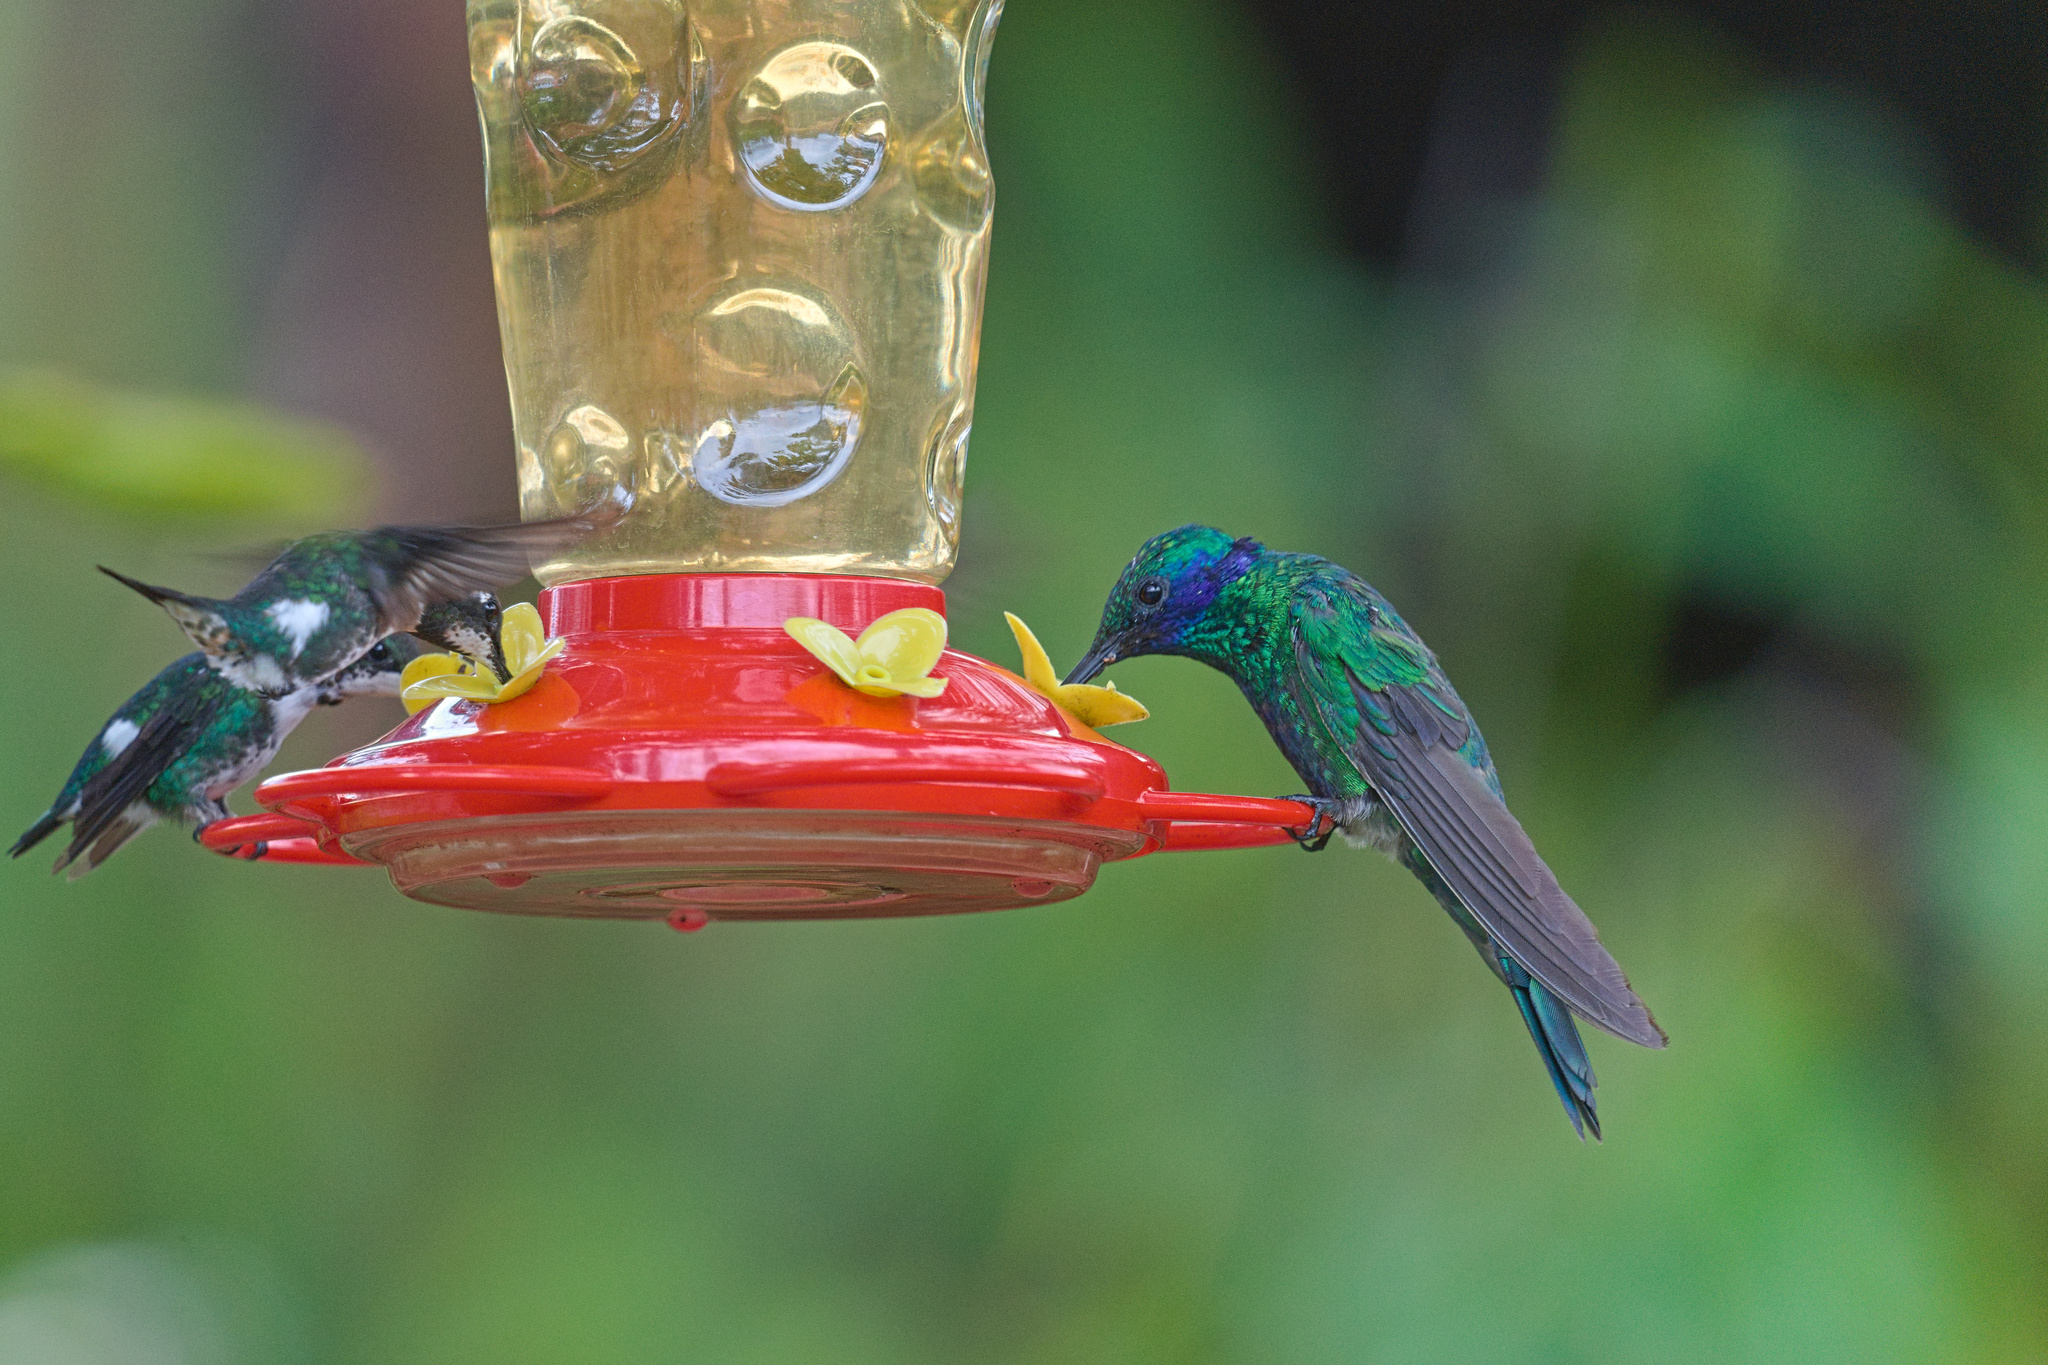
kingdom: Animalia
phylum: Chordata
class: Aves
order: Apodiformes
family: Trochilidae
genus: Colibri
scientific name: Colibri coruscans
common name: Sparkling violetear
